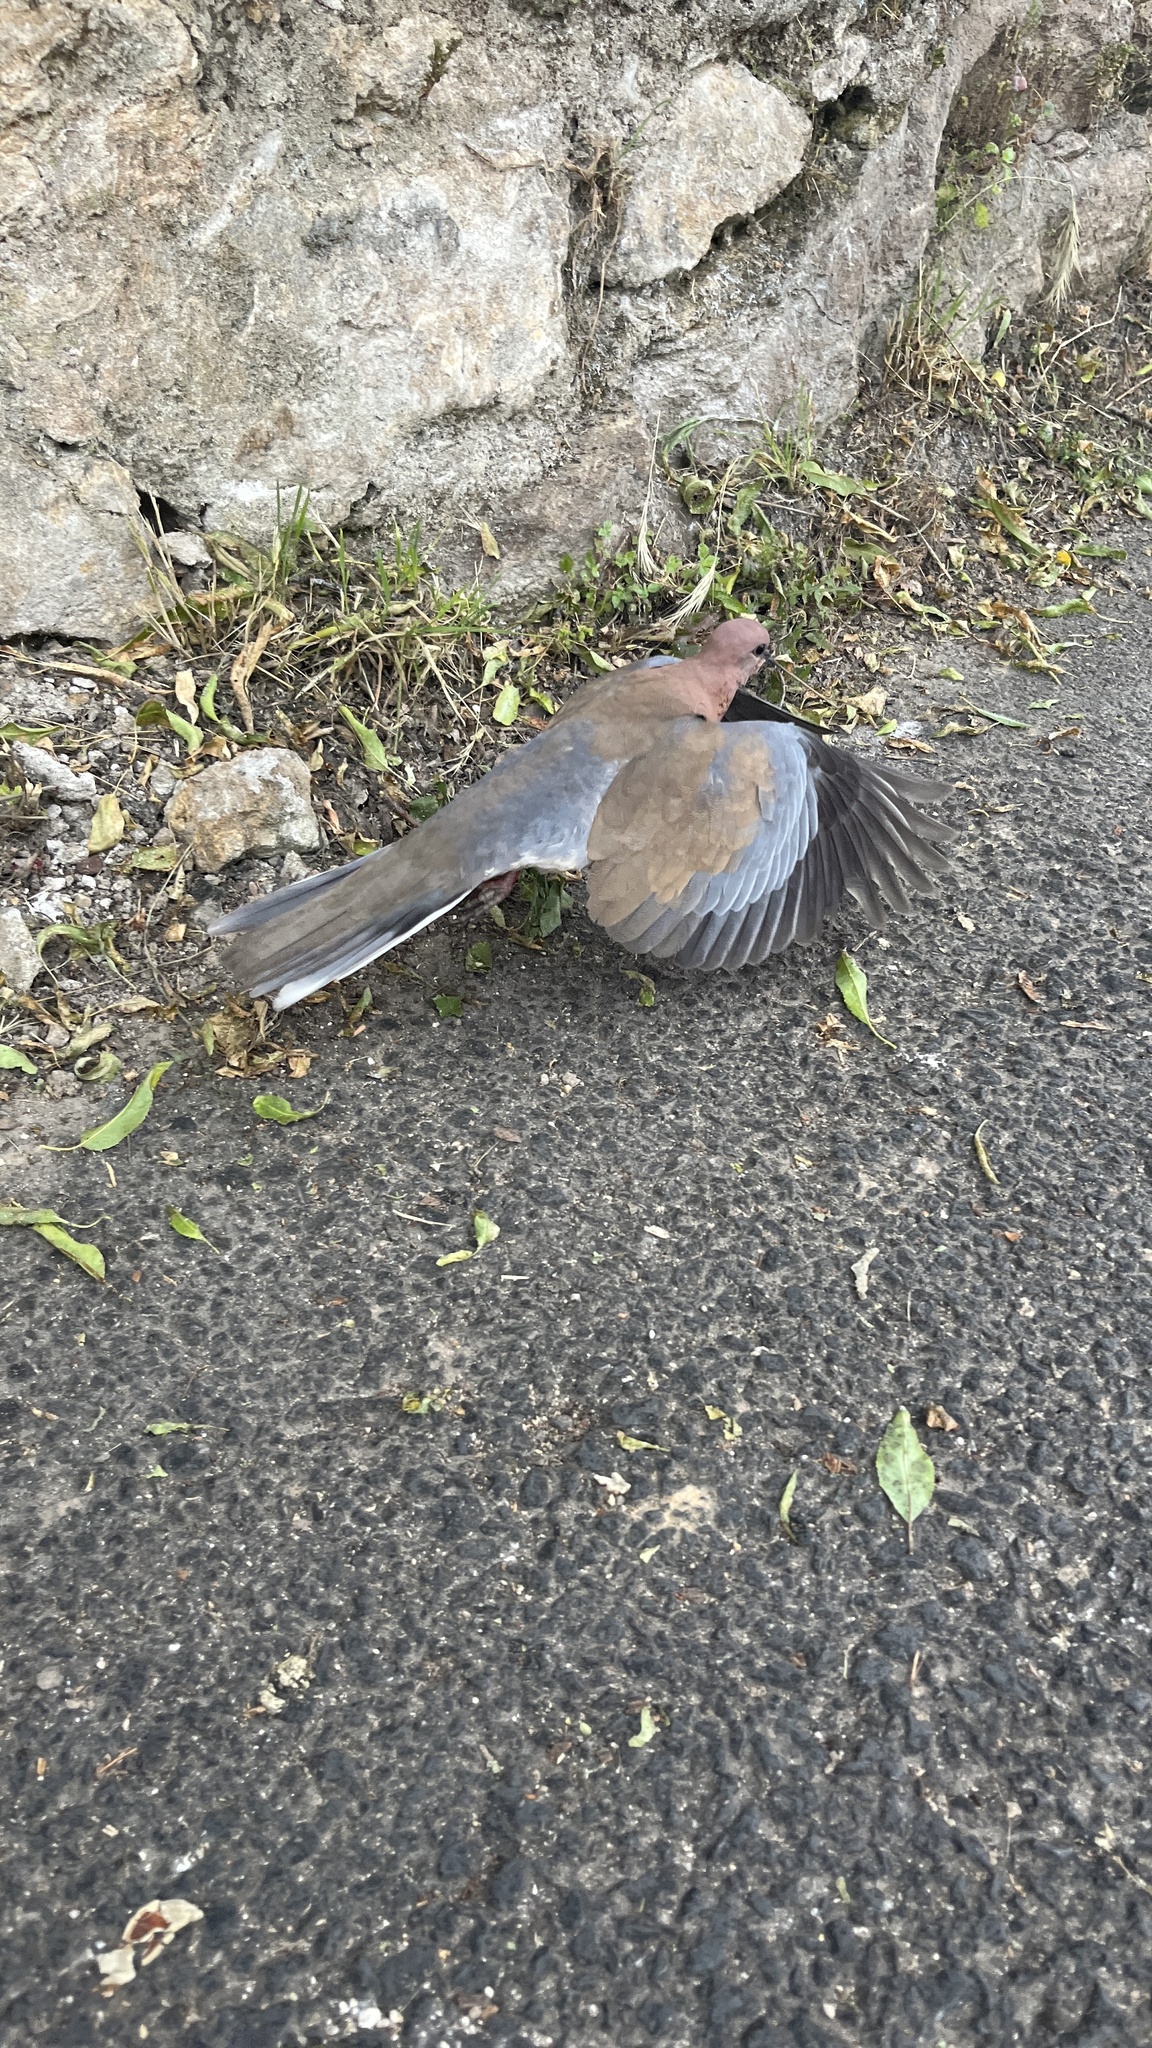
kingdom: Animalia
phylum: Chordata
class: Aves
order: Columbiformes
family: Columbidae
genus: Spilopelia
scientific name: Spilopelia senegalensis
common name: Laughing dove
